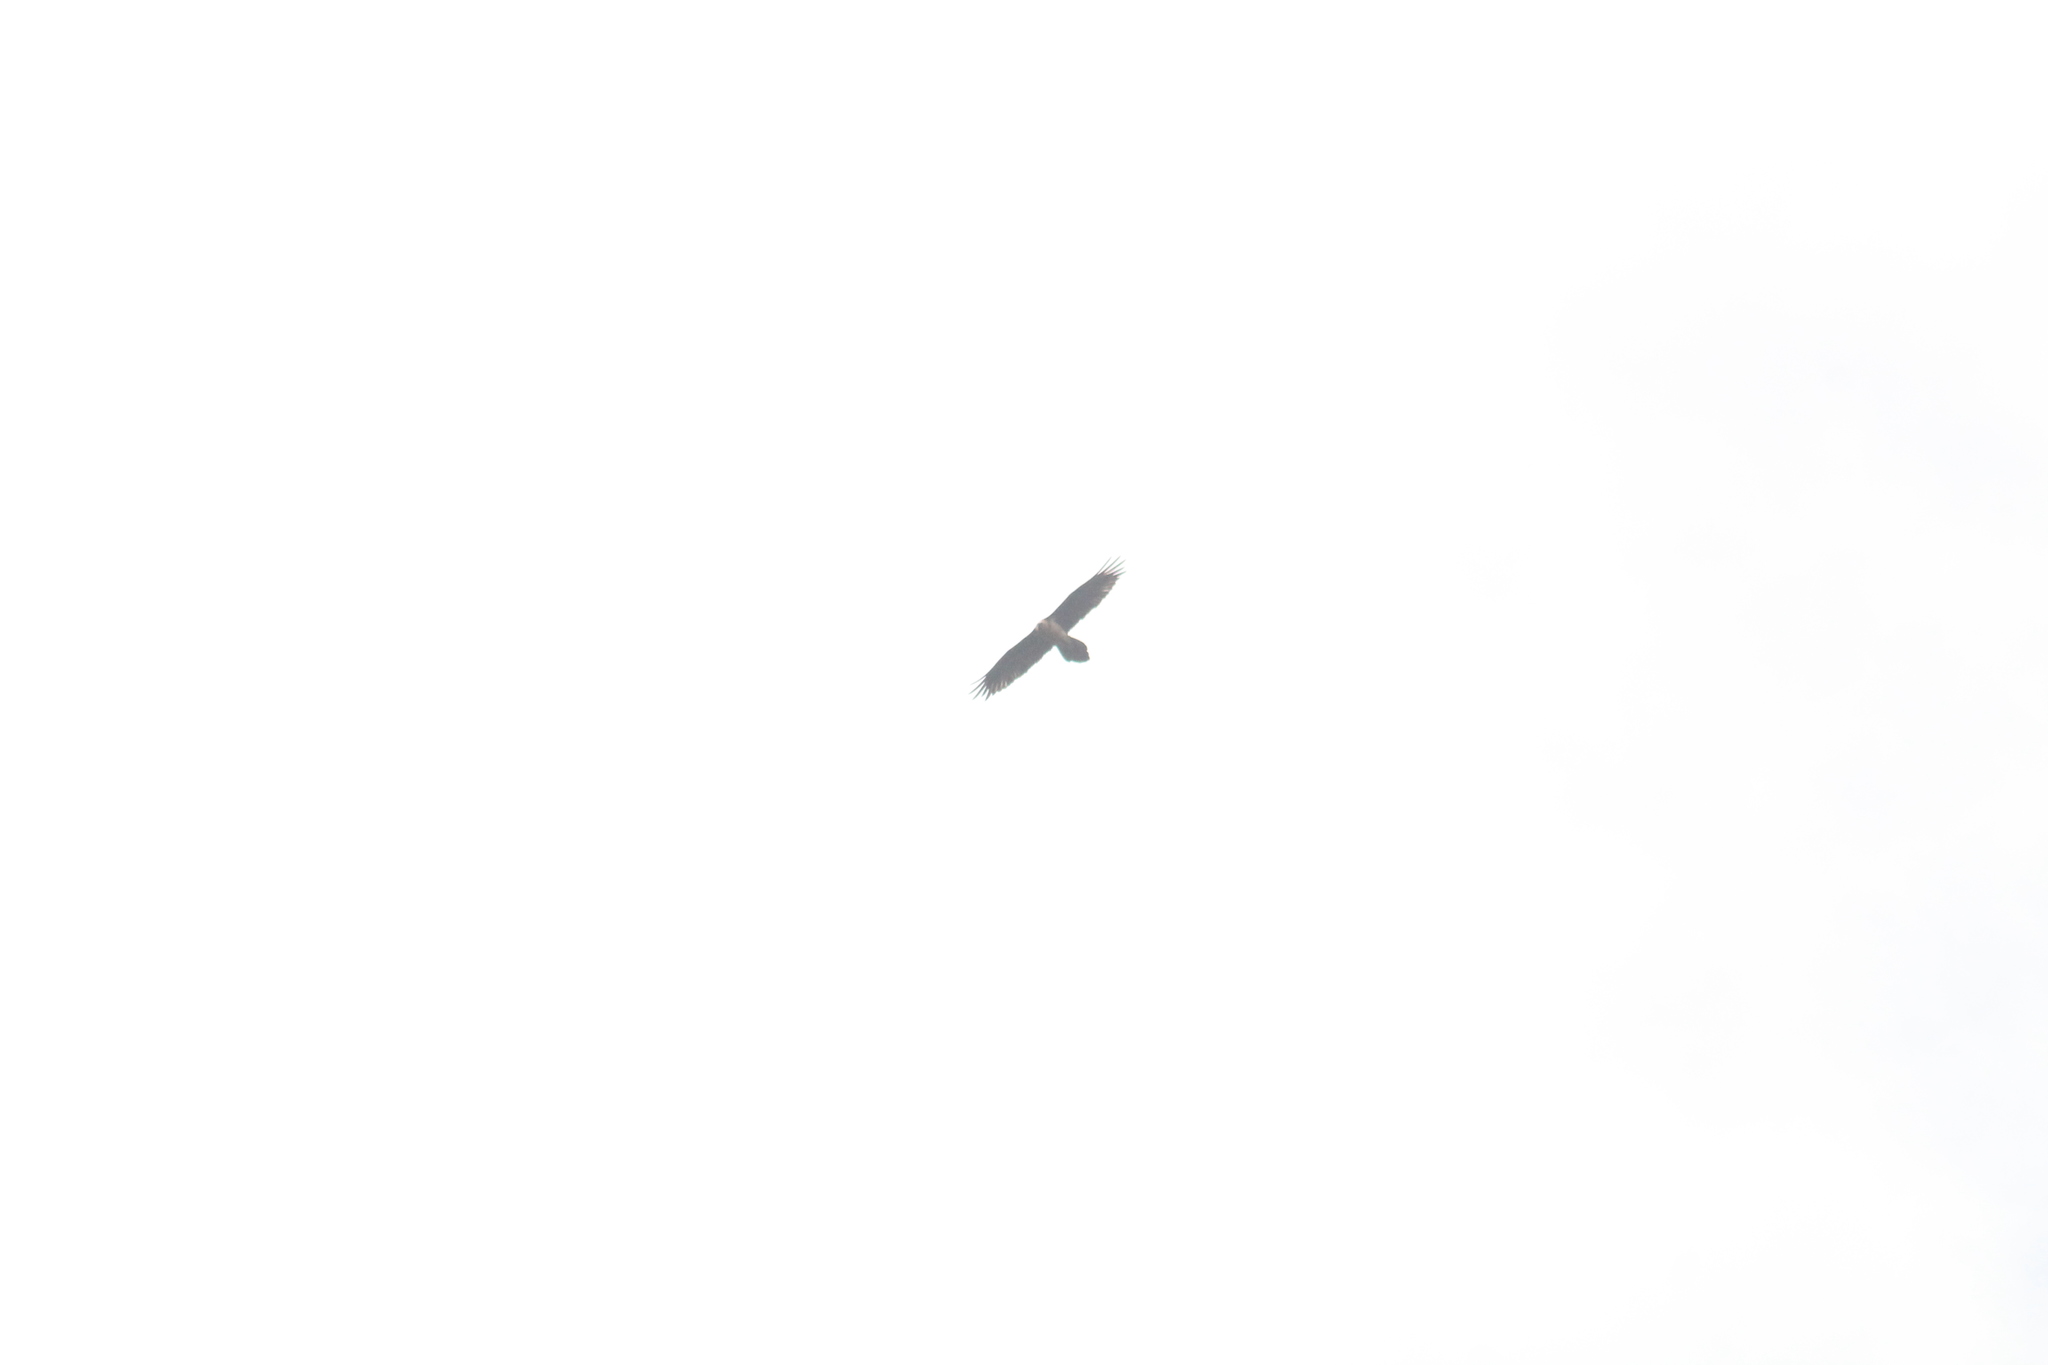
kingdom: Animalia
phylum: Chordata
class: Aves
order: Accipitriformes
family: Accipitridae
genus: Gypaetus
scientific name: Gypaetus barbatus
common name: Bearded vulture
